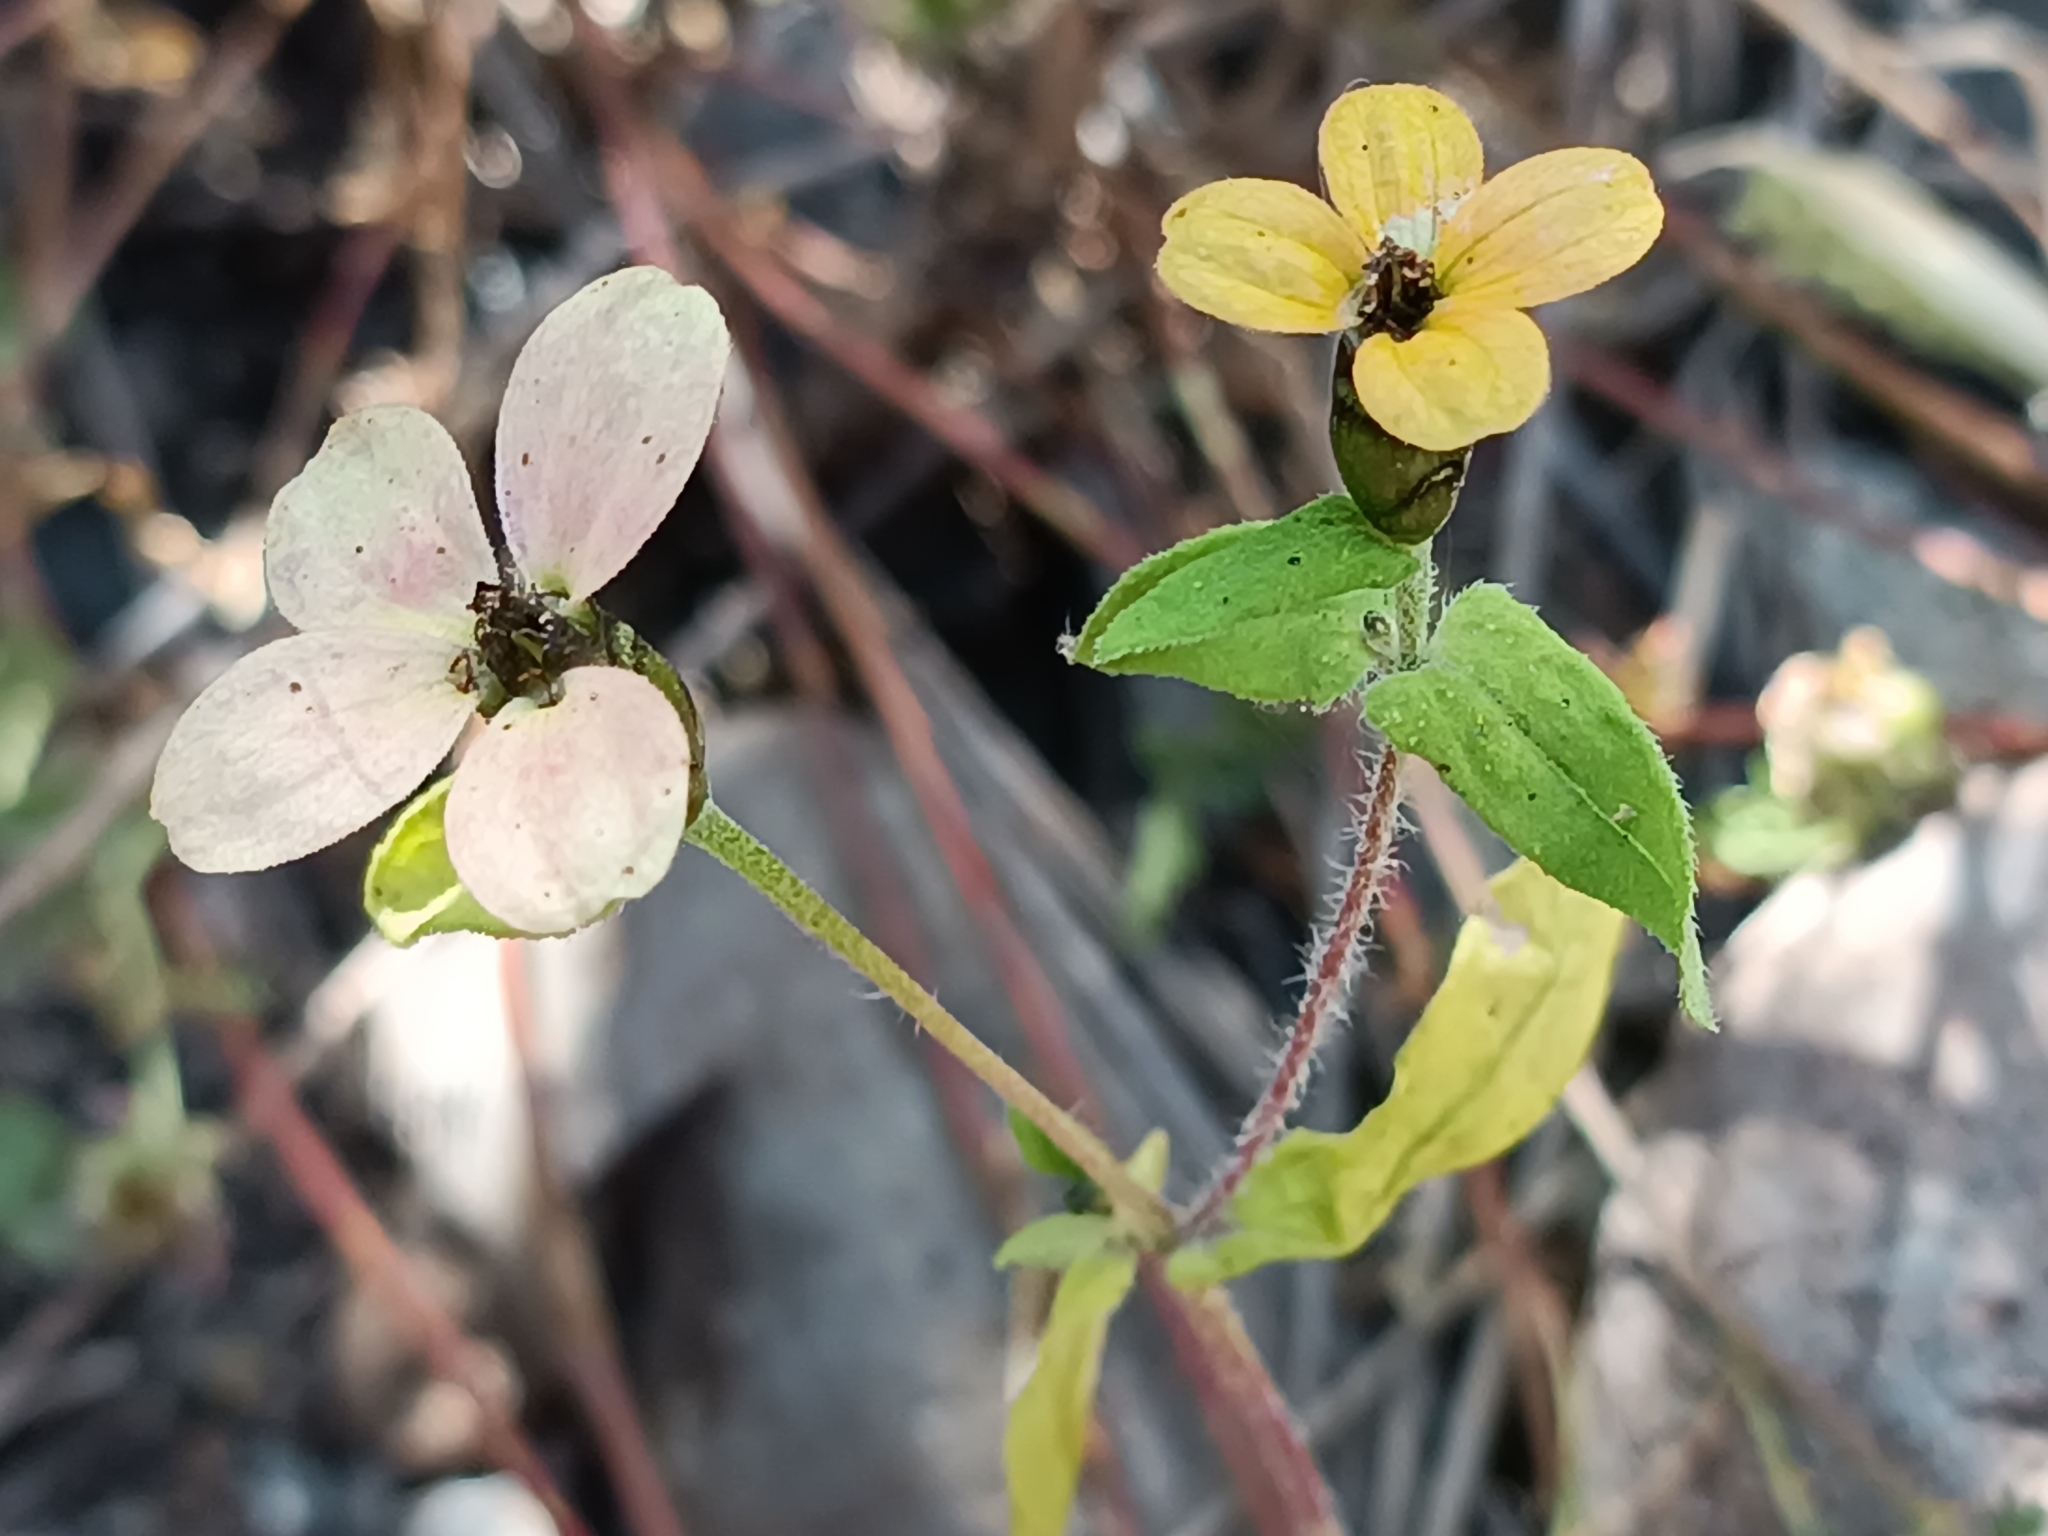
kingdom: Plantae
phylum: Tracheophyta
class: Magnoliopsida
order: Asterales
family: Asteraceae
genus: Zinnia
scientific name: Zinnia peruviana
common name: Peruvian zinnia
